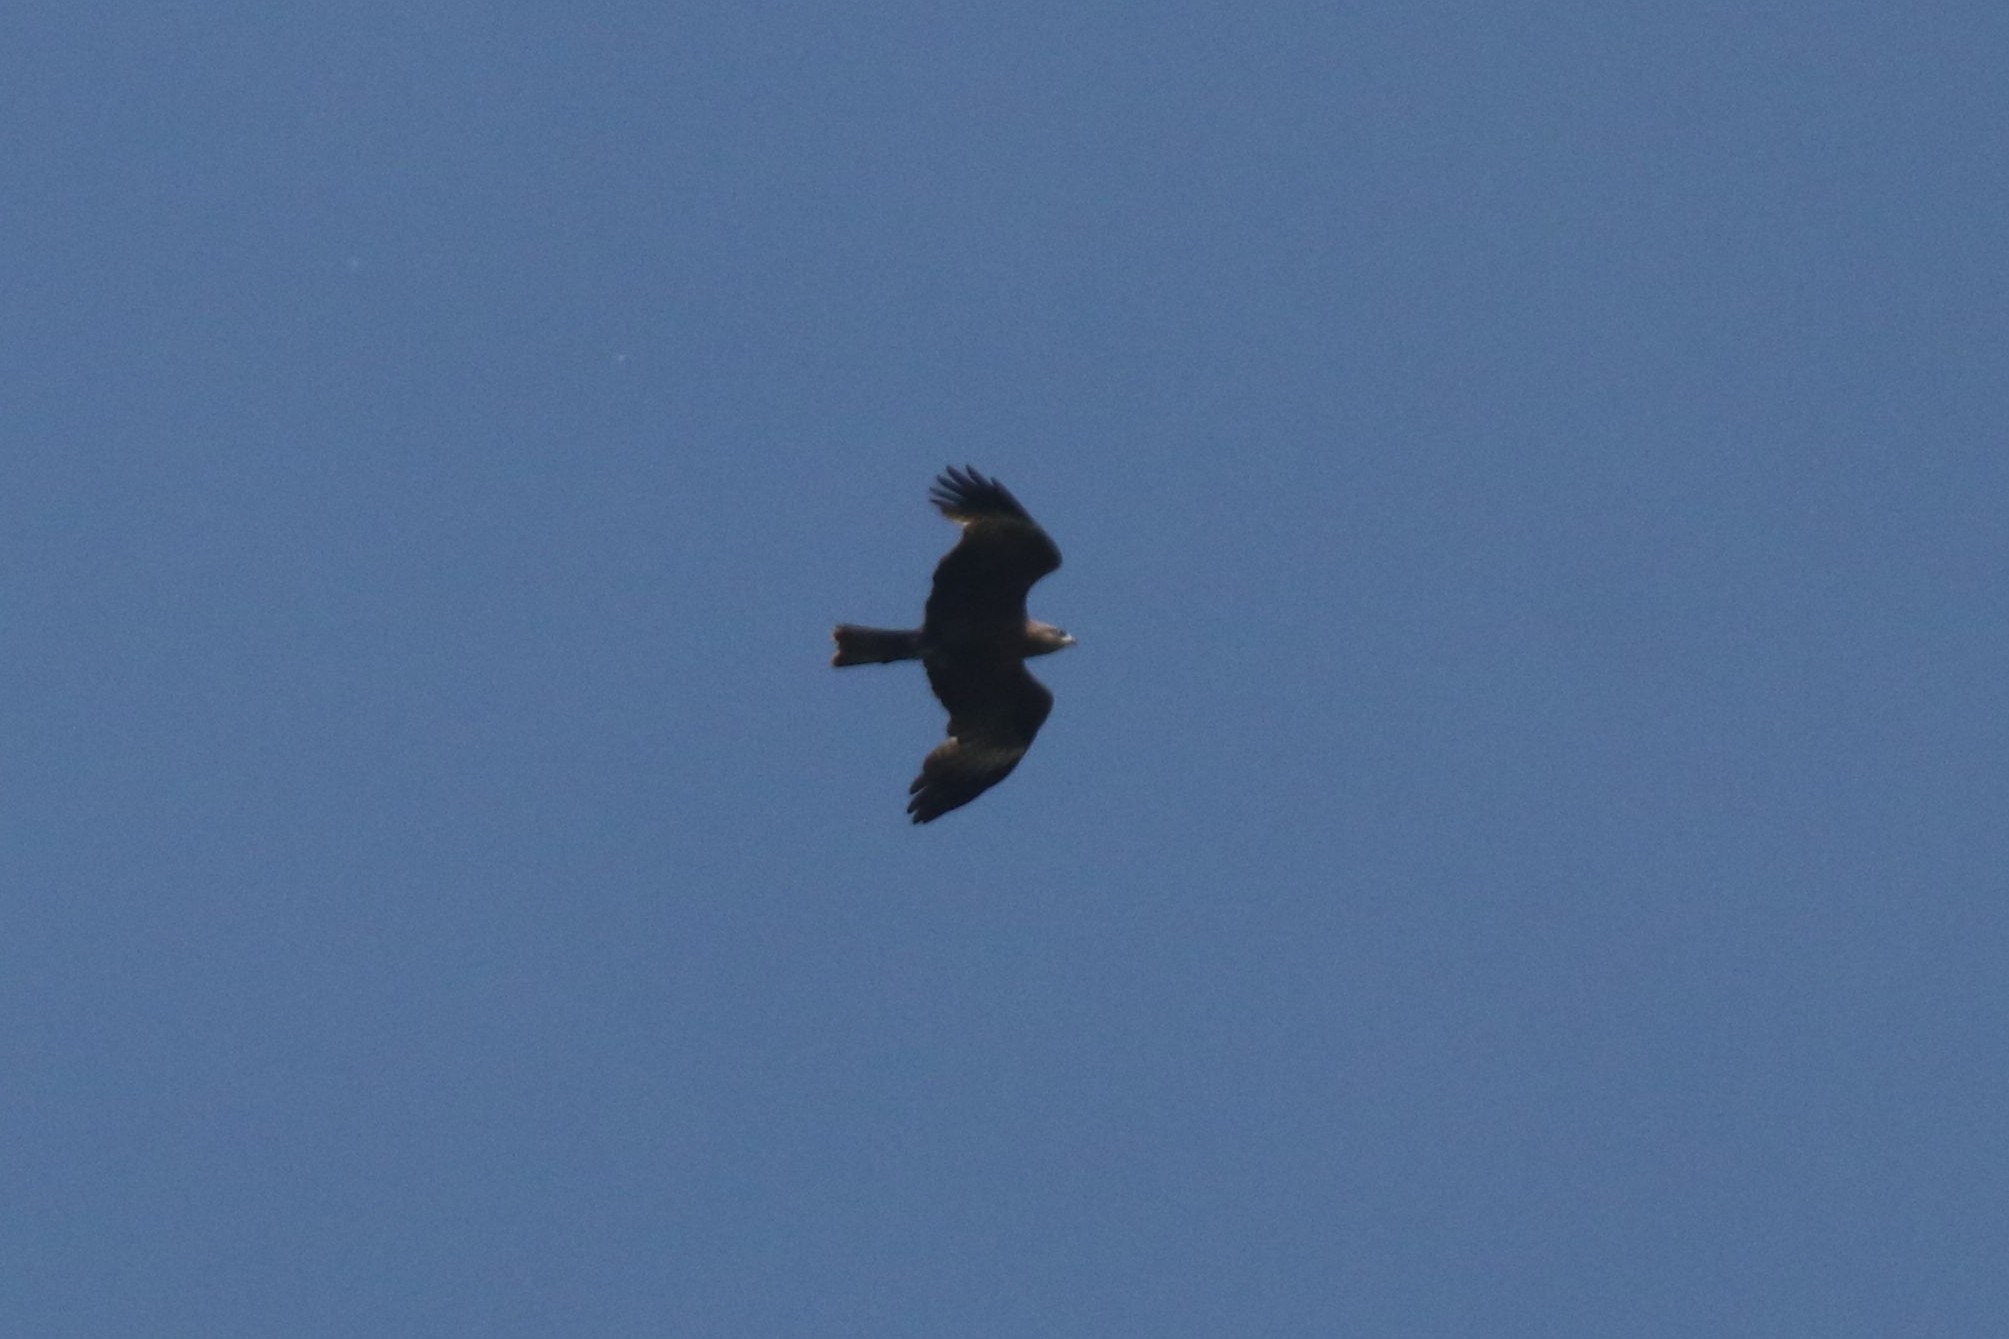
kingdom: Animalia
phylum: Chordata
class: Aves
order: Accipitriformes
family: Accipitridae
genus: Milvus
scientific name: Milvus migrans
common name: Black kite
